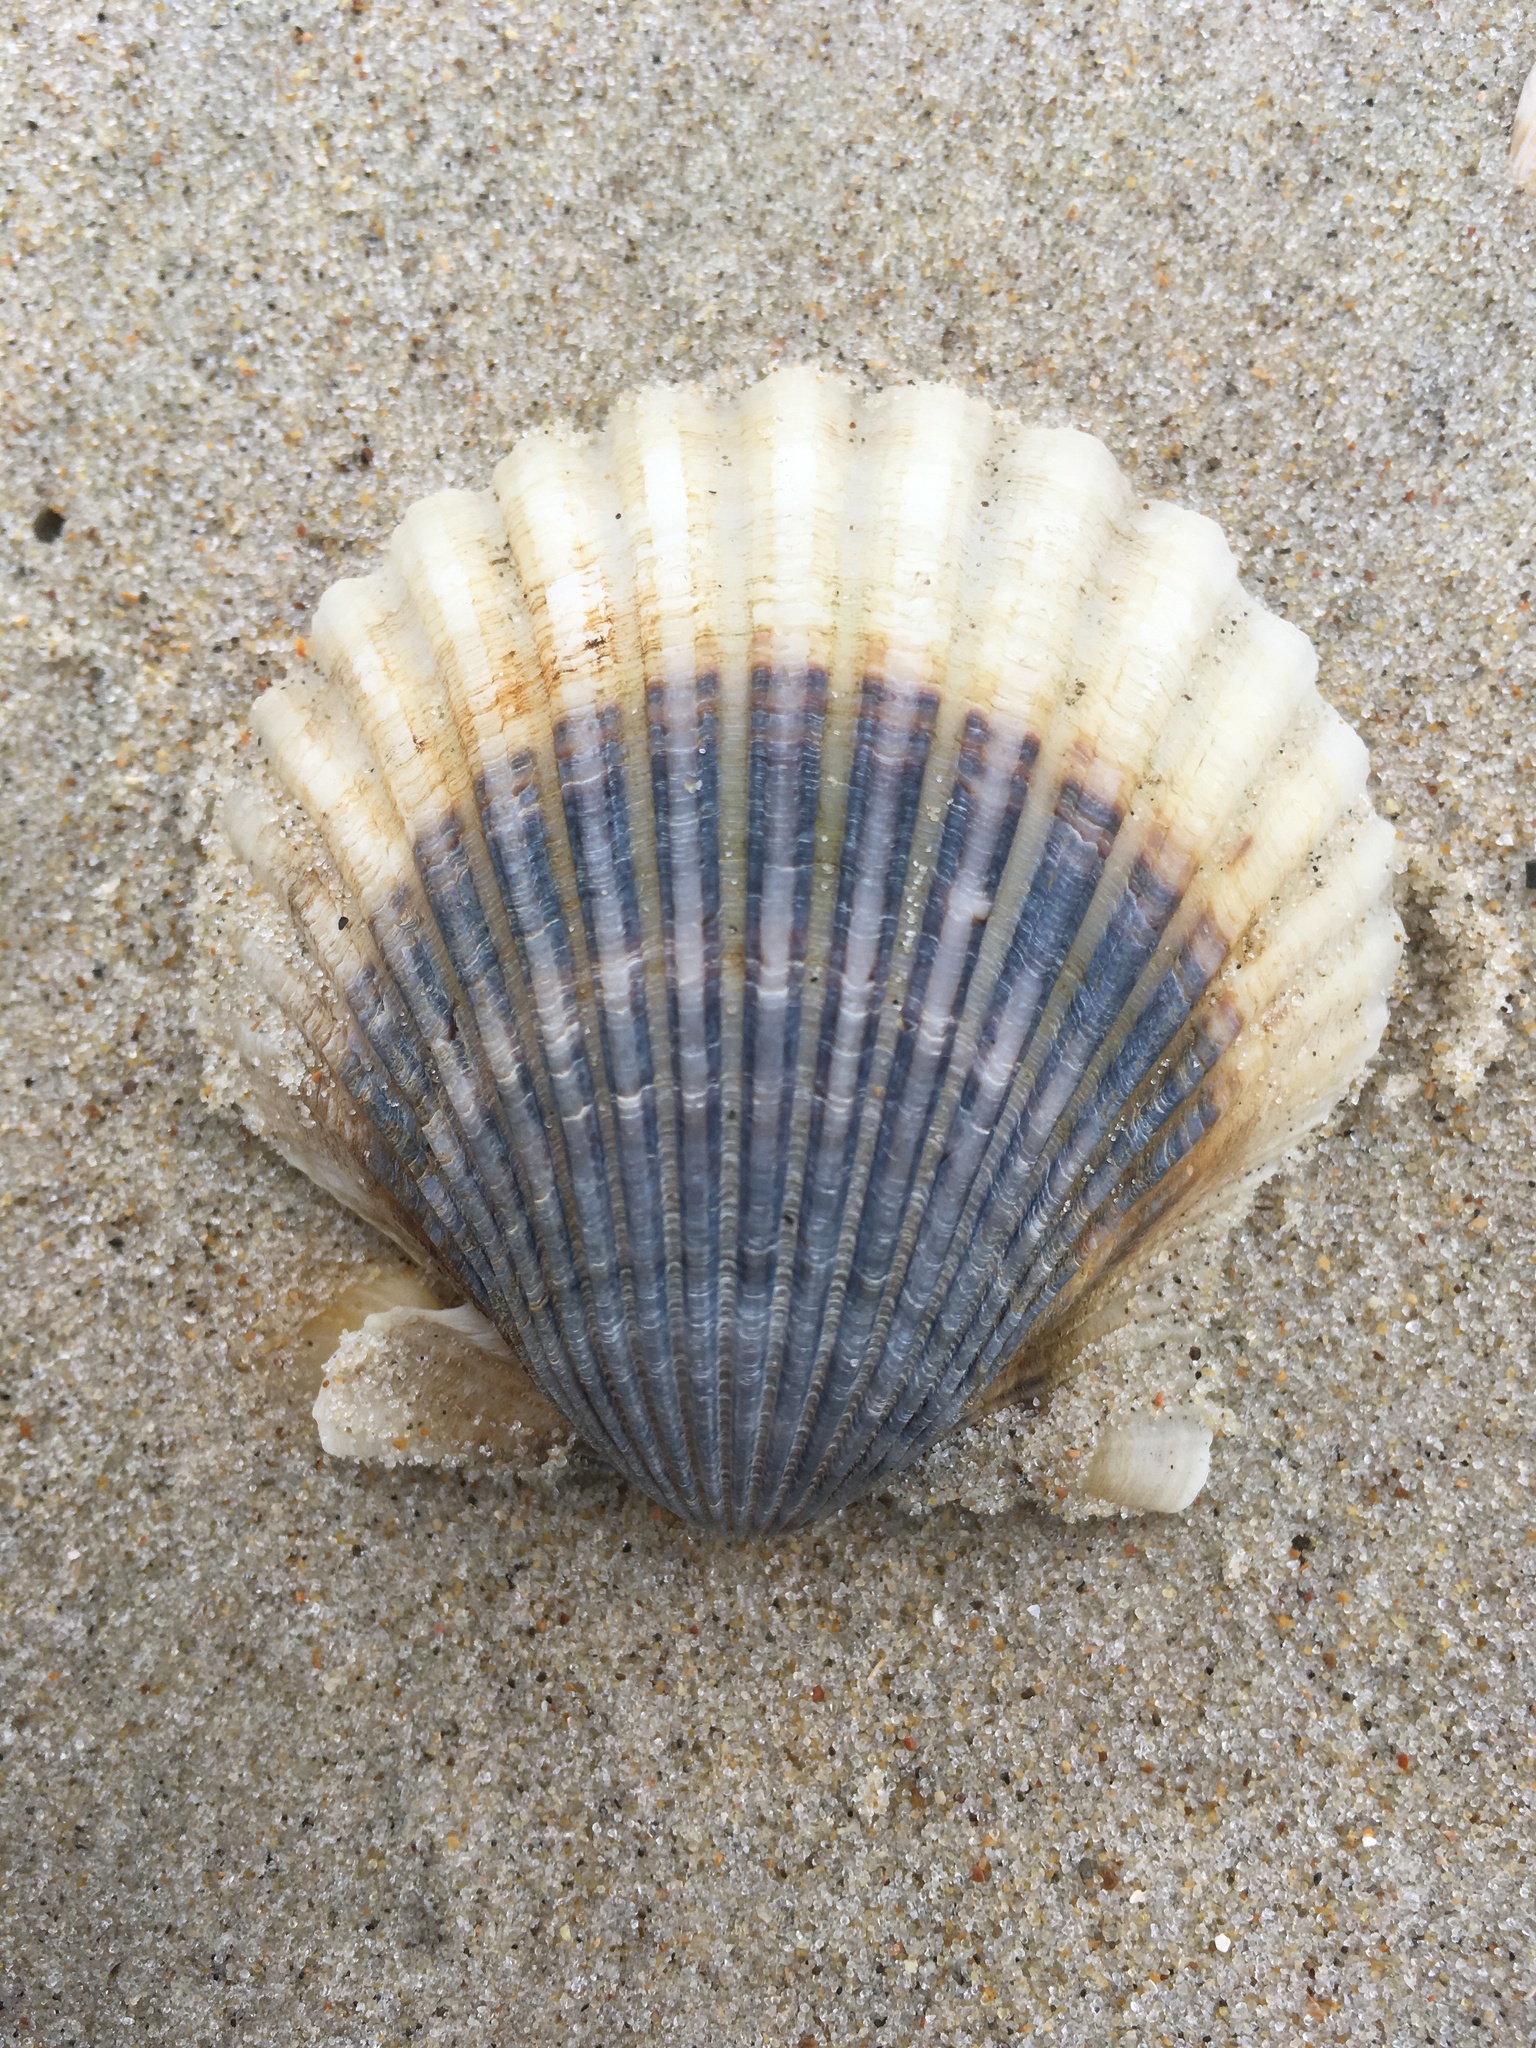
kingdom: Animalia
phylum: Mollusca
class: Bivalvia
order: Pectinida
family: Pectinidae
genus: Argopecten
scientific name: Argopecten irradians
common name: Atlantic bay scallop
